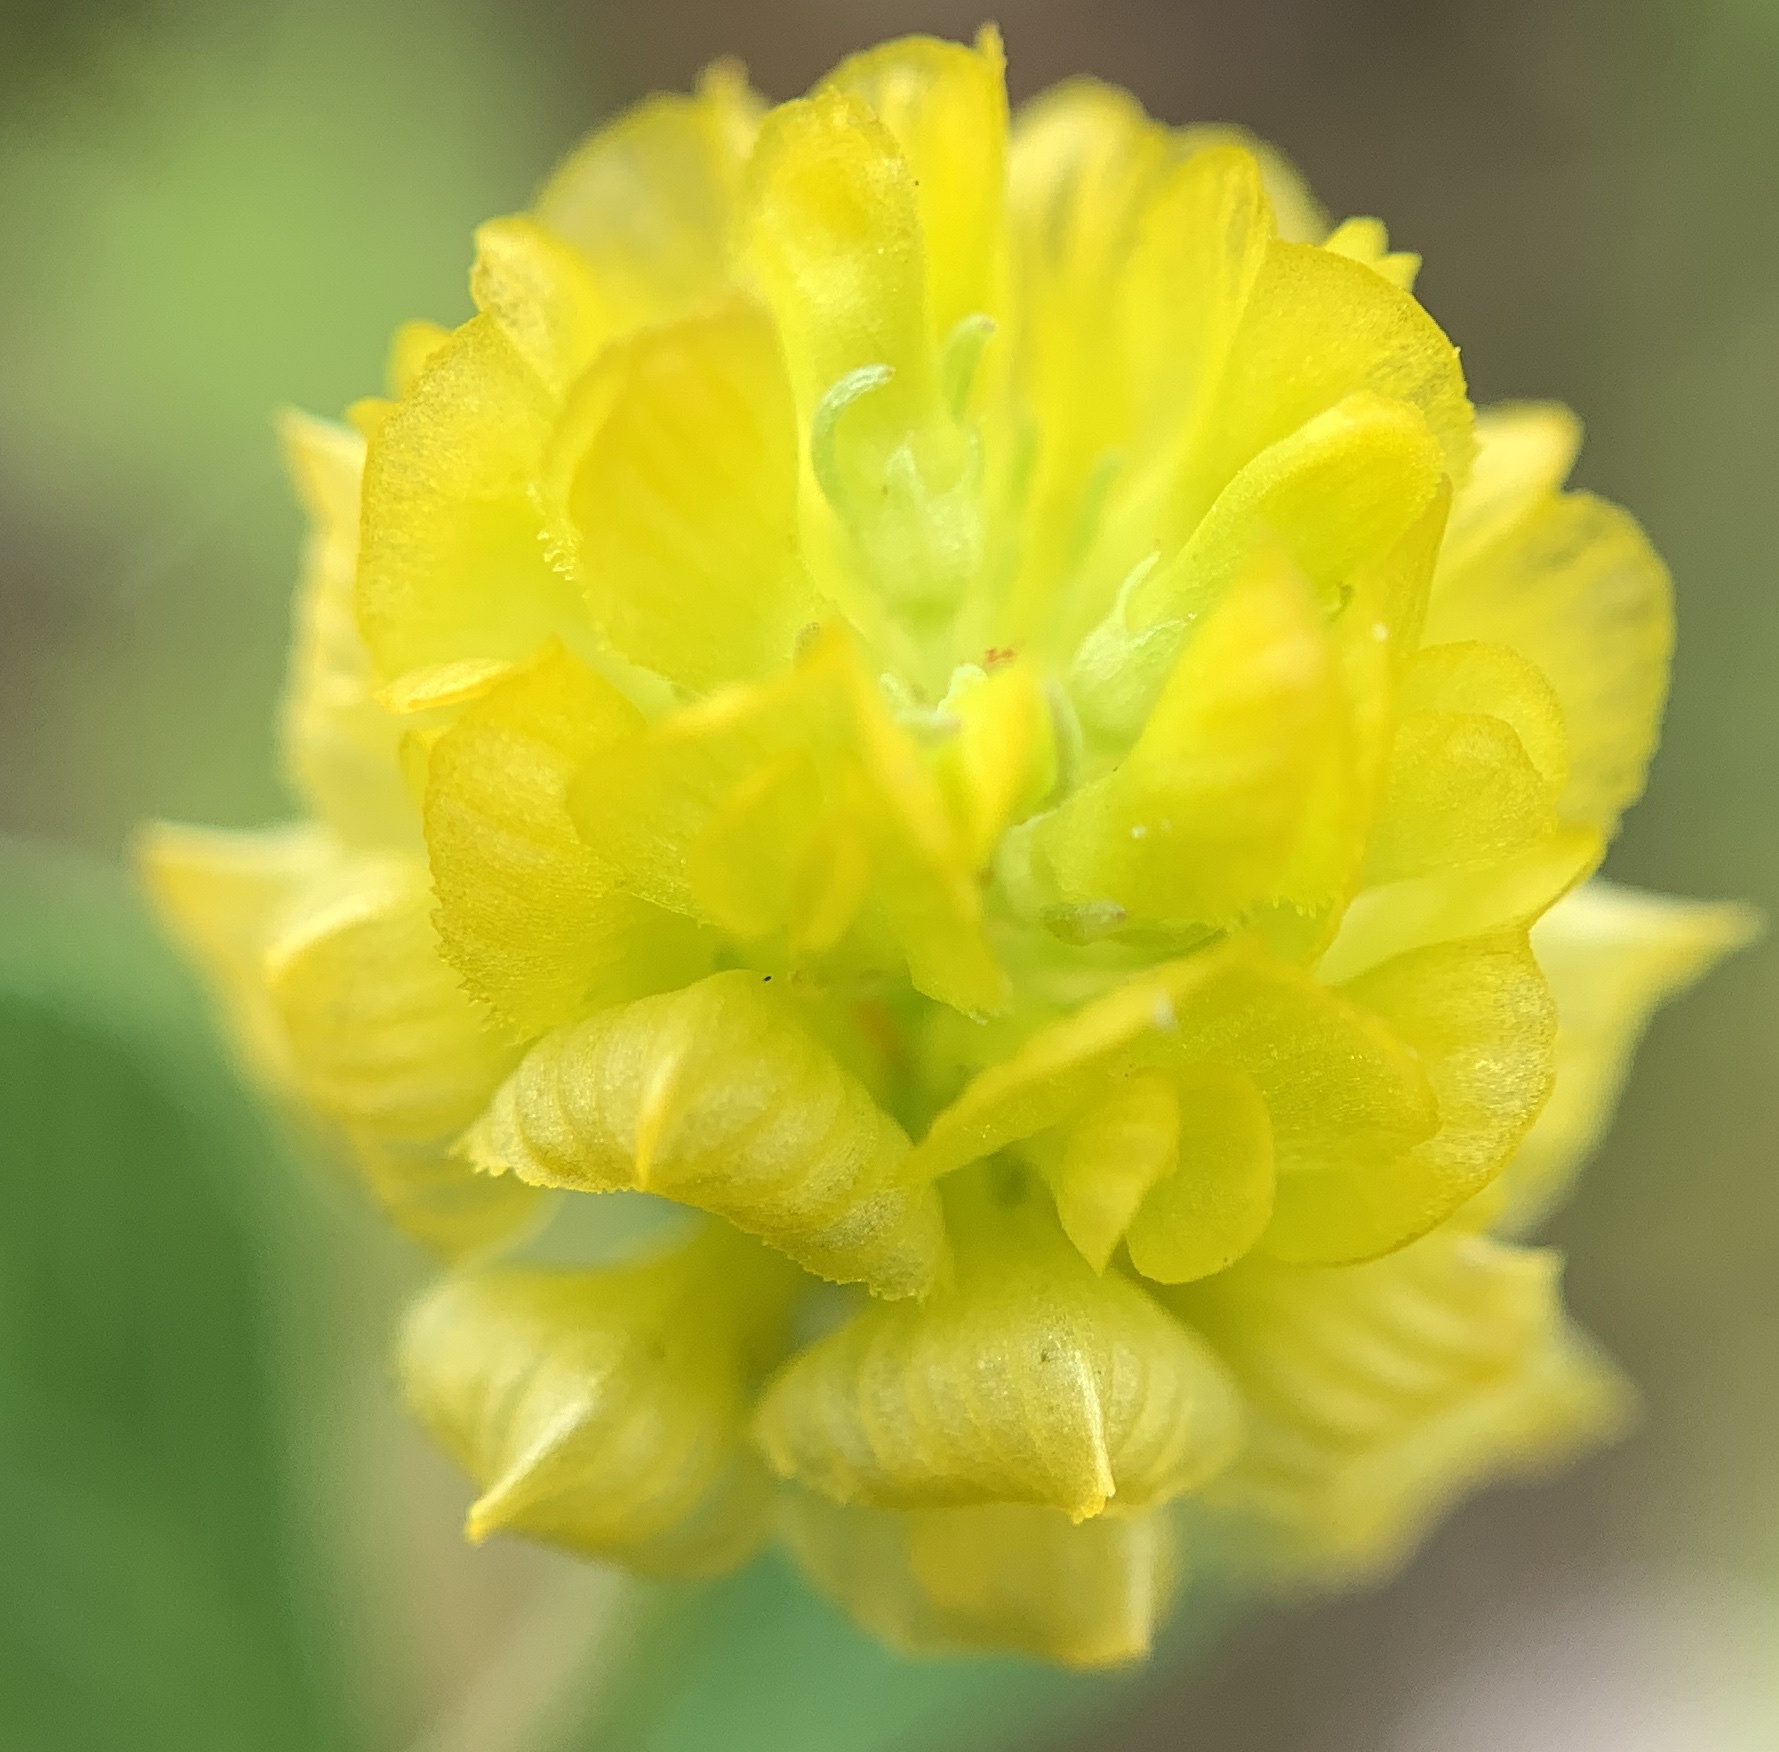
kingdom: Plantae
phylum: Tracheophyta
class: Magnoliopsida
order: Fabales
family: Fabaceae
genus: Trifolium
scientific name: Trifolium campestre
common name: Field clover
